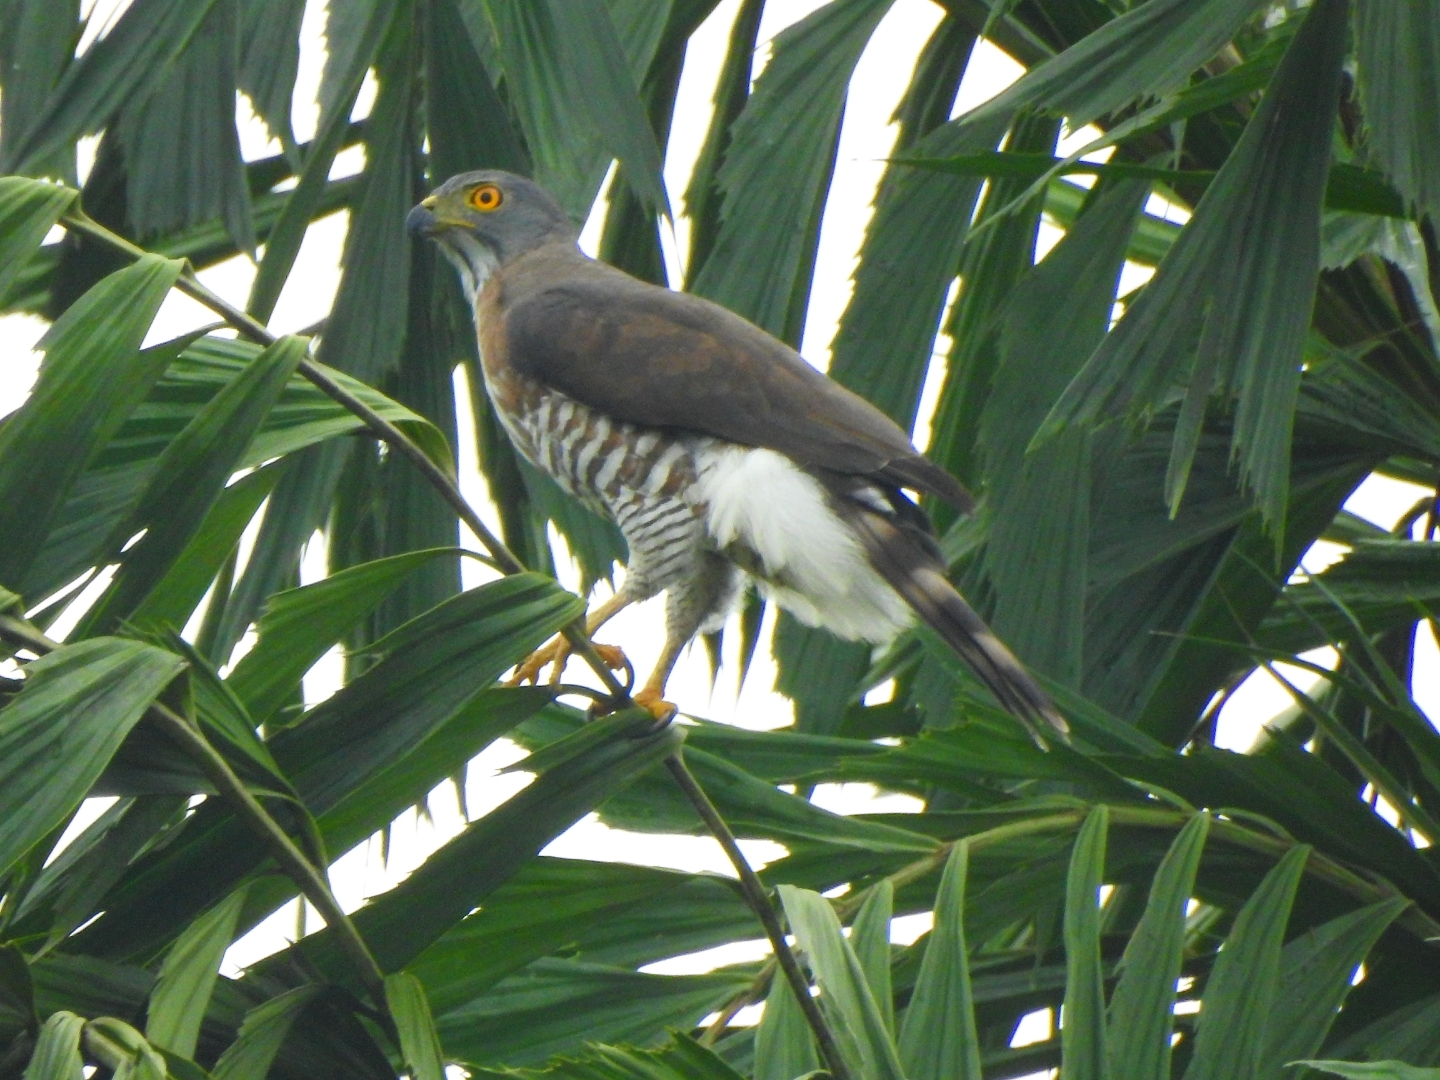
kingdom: Animalia
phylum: Chordata
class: Aves
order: Accipitriformes
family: Accipitridae
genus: Accipiter
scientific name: Accipiter trivirgatus
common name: Crested goshawk
